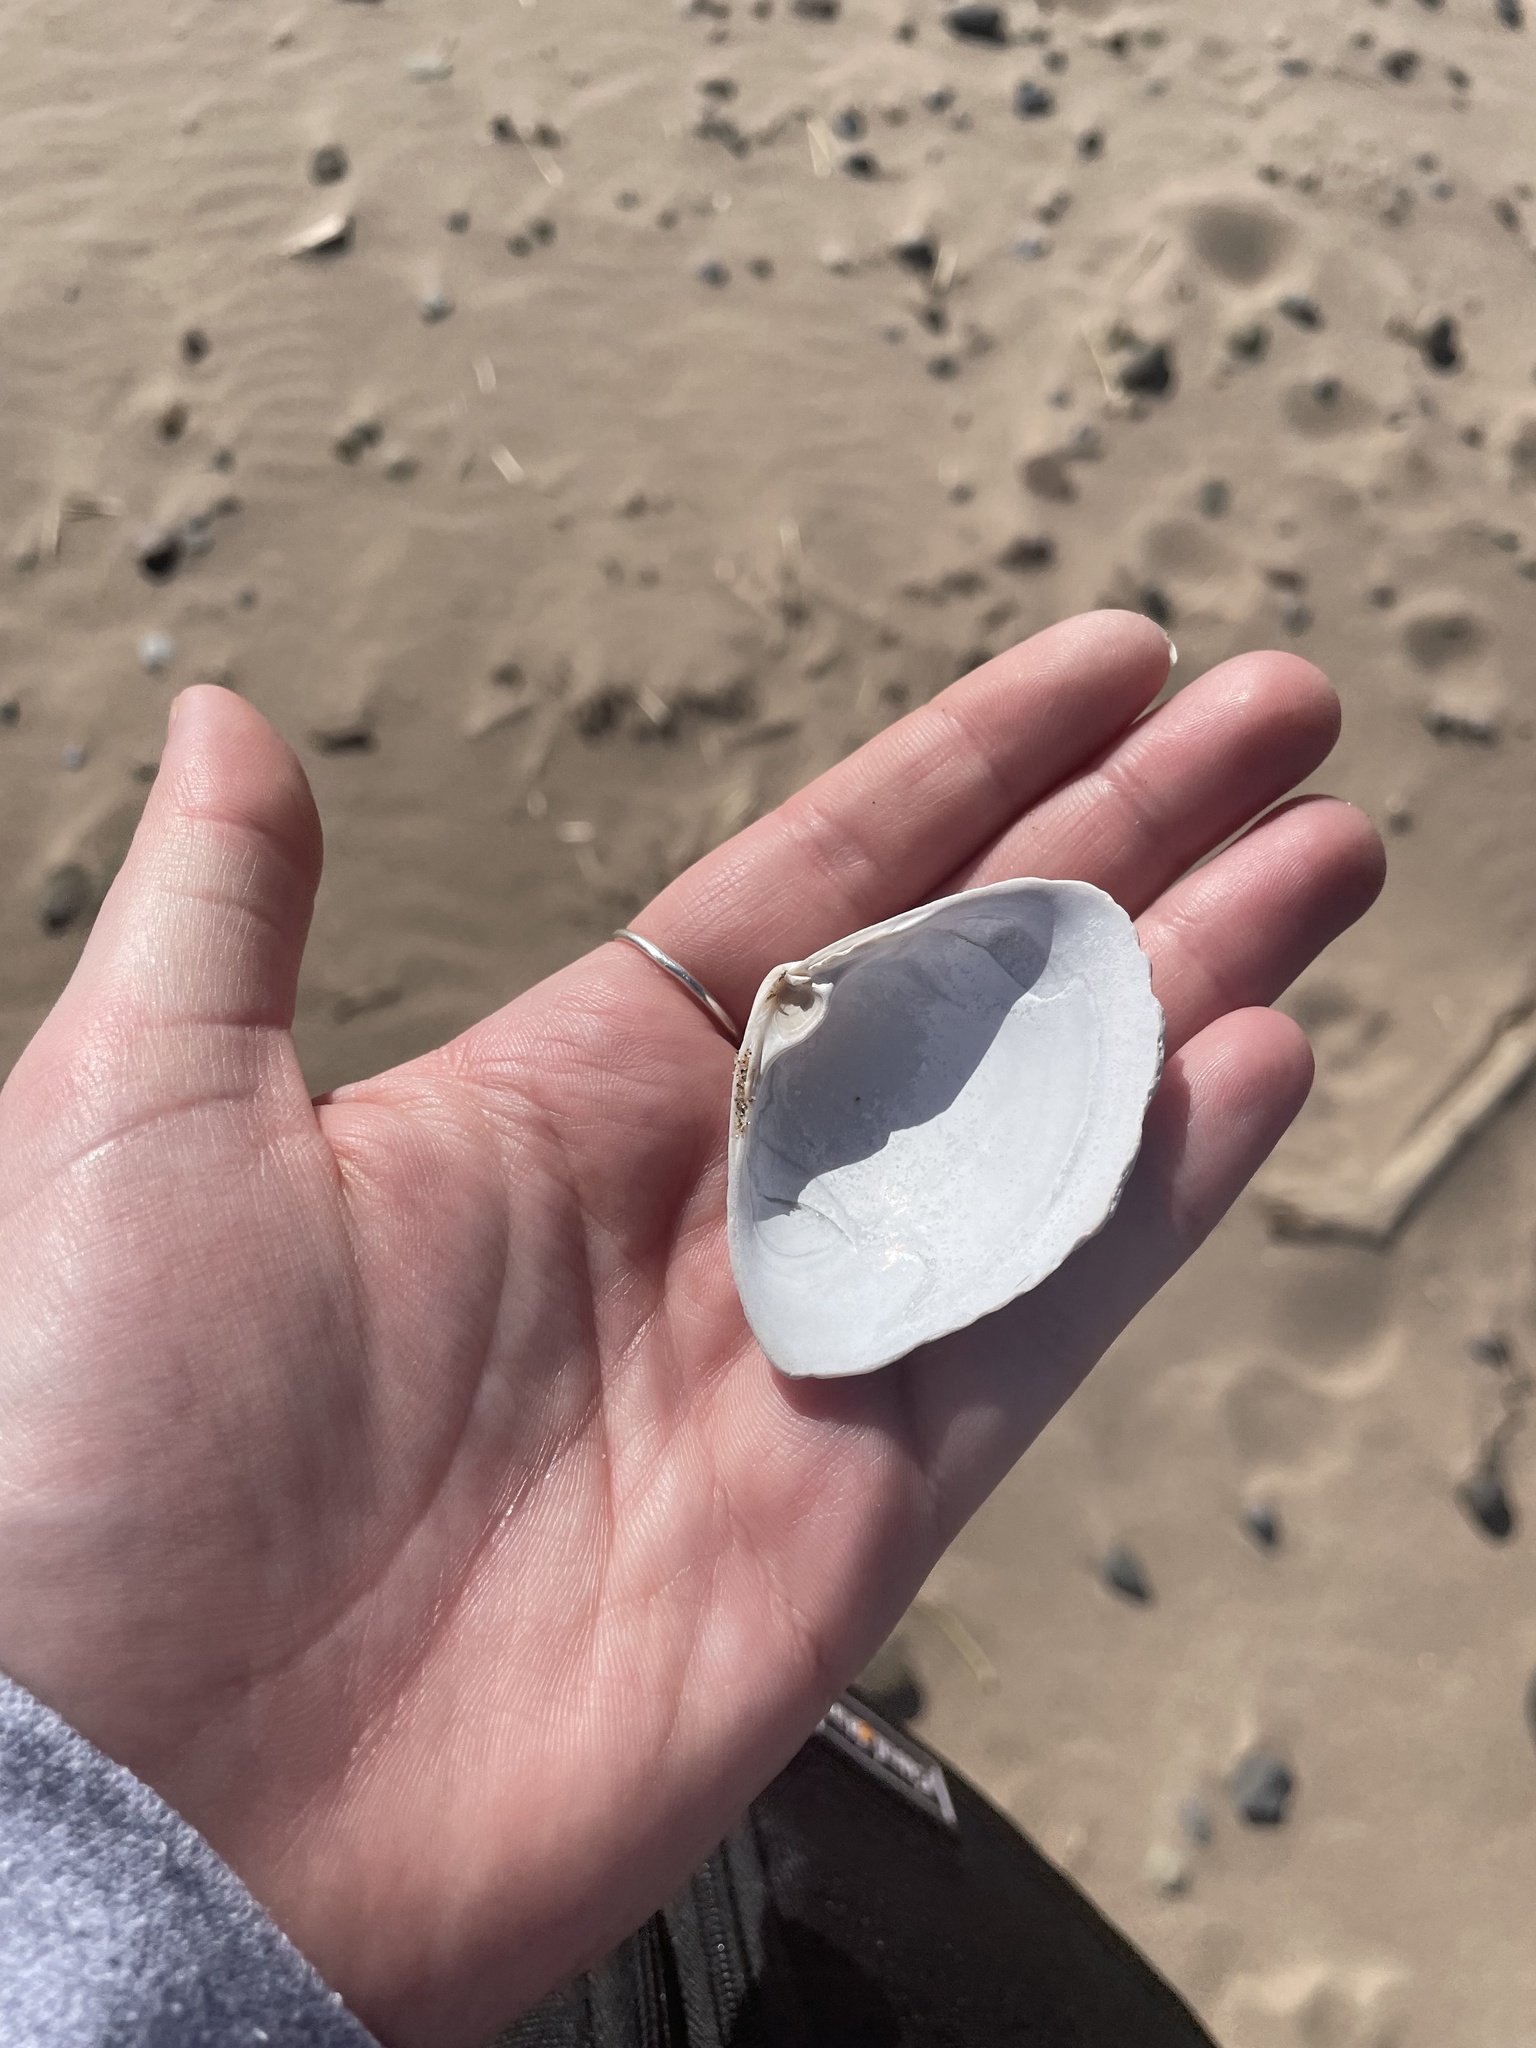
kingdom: Animalia
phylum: Mollusca
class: Bivalvia
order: Venerida
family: Mactridae
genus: Spisula
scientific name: Spisula solidissima
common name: Atlantic surf clam
